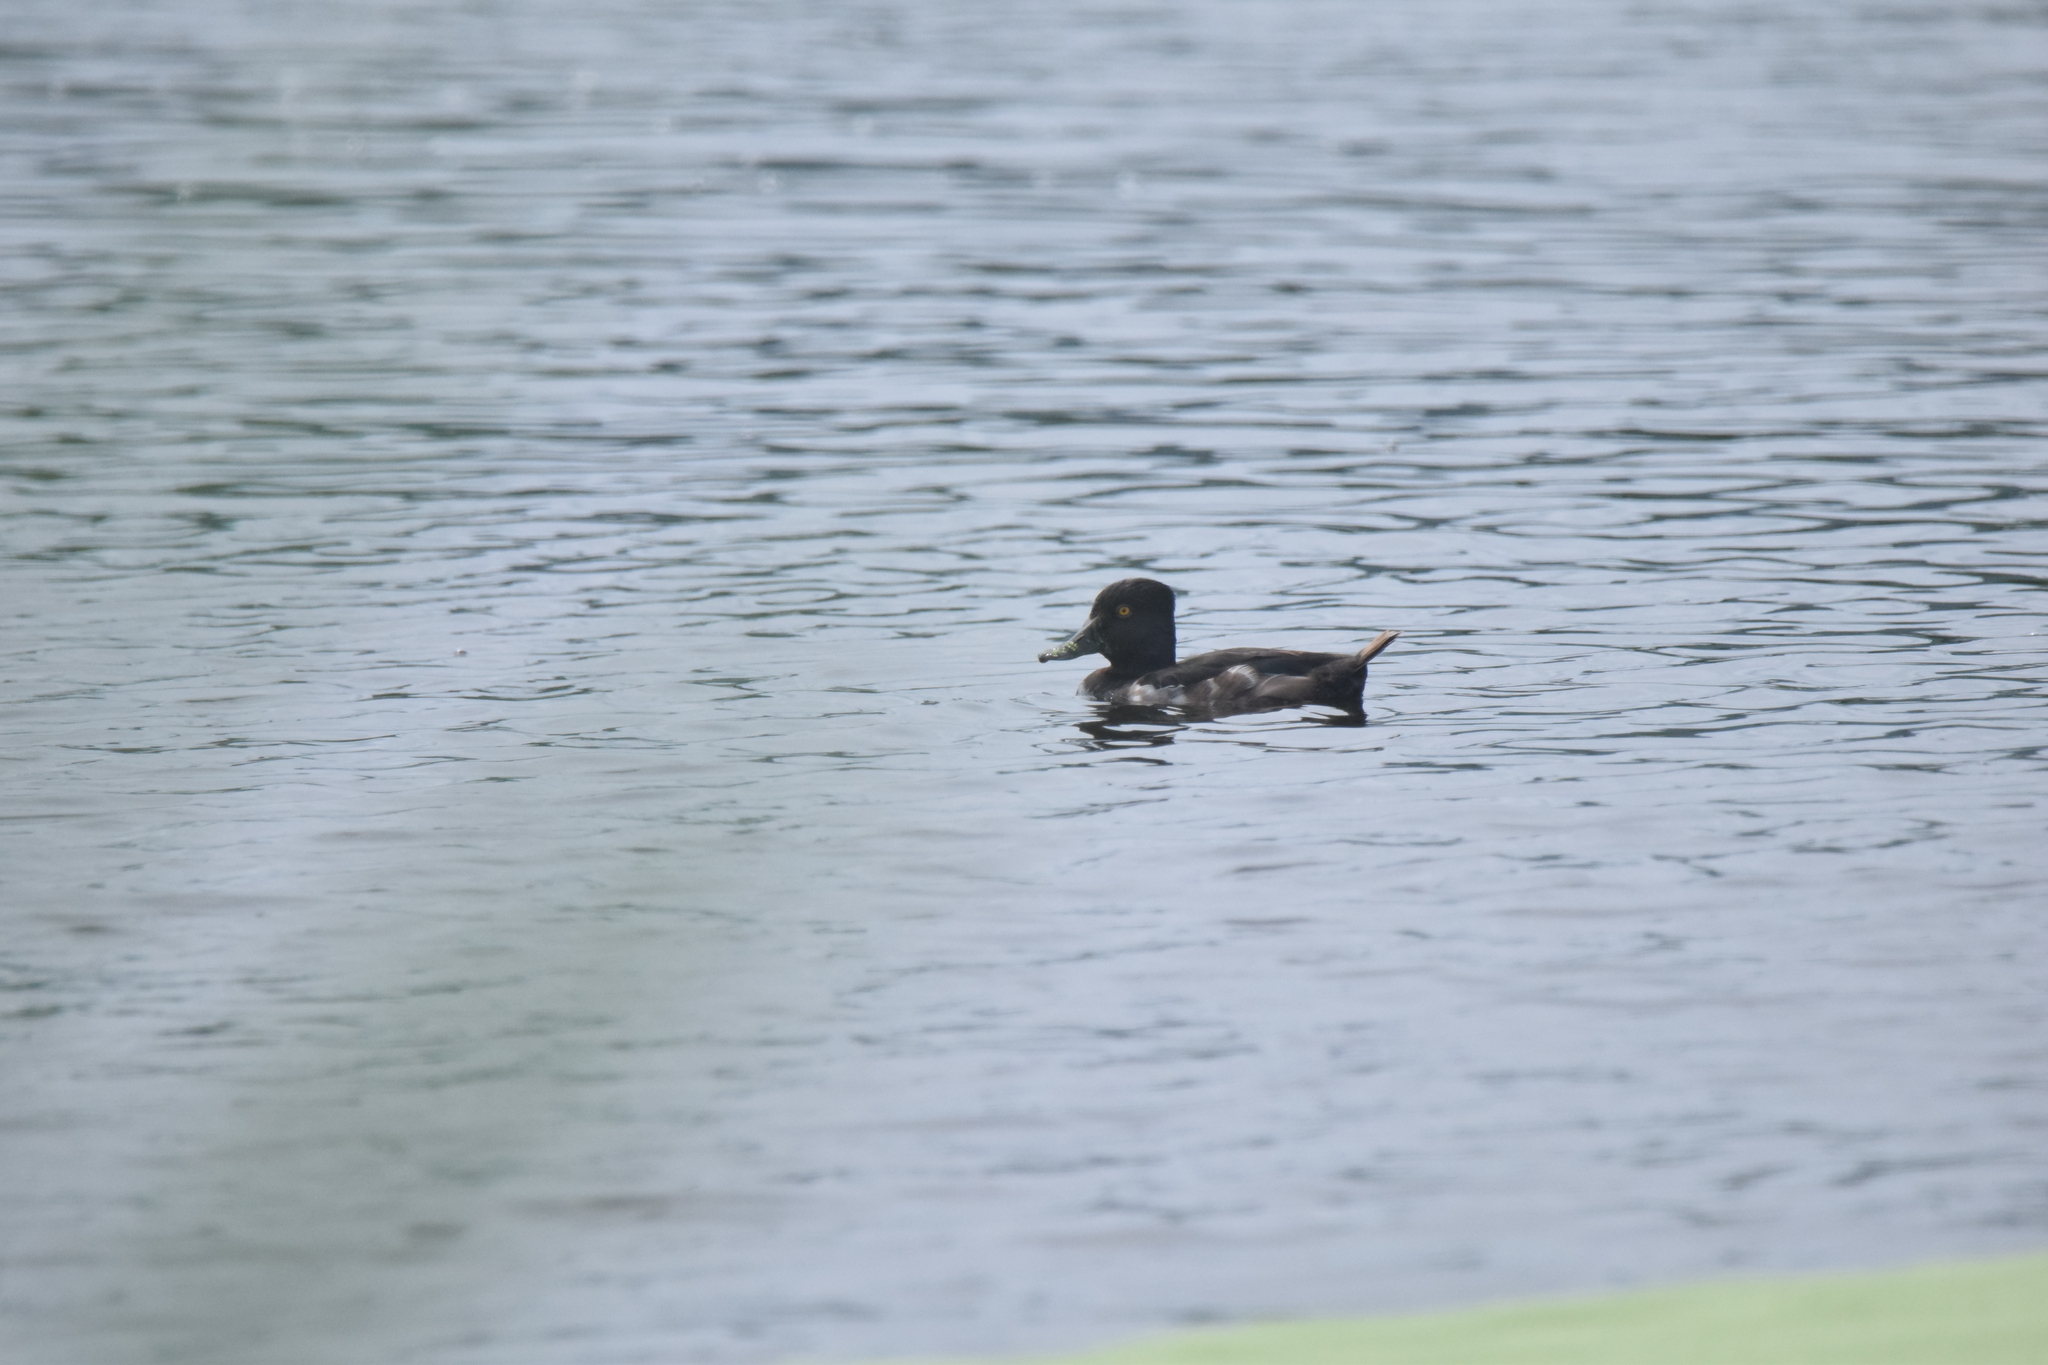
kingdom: Animalia
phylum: Chordata
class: Aves
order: Anseriformes
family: Anatidae
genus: Aythya
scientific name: Aythya collaris
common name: Ring-necked duck
